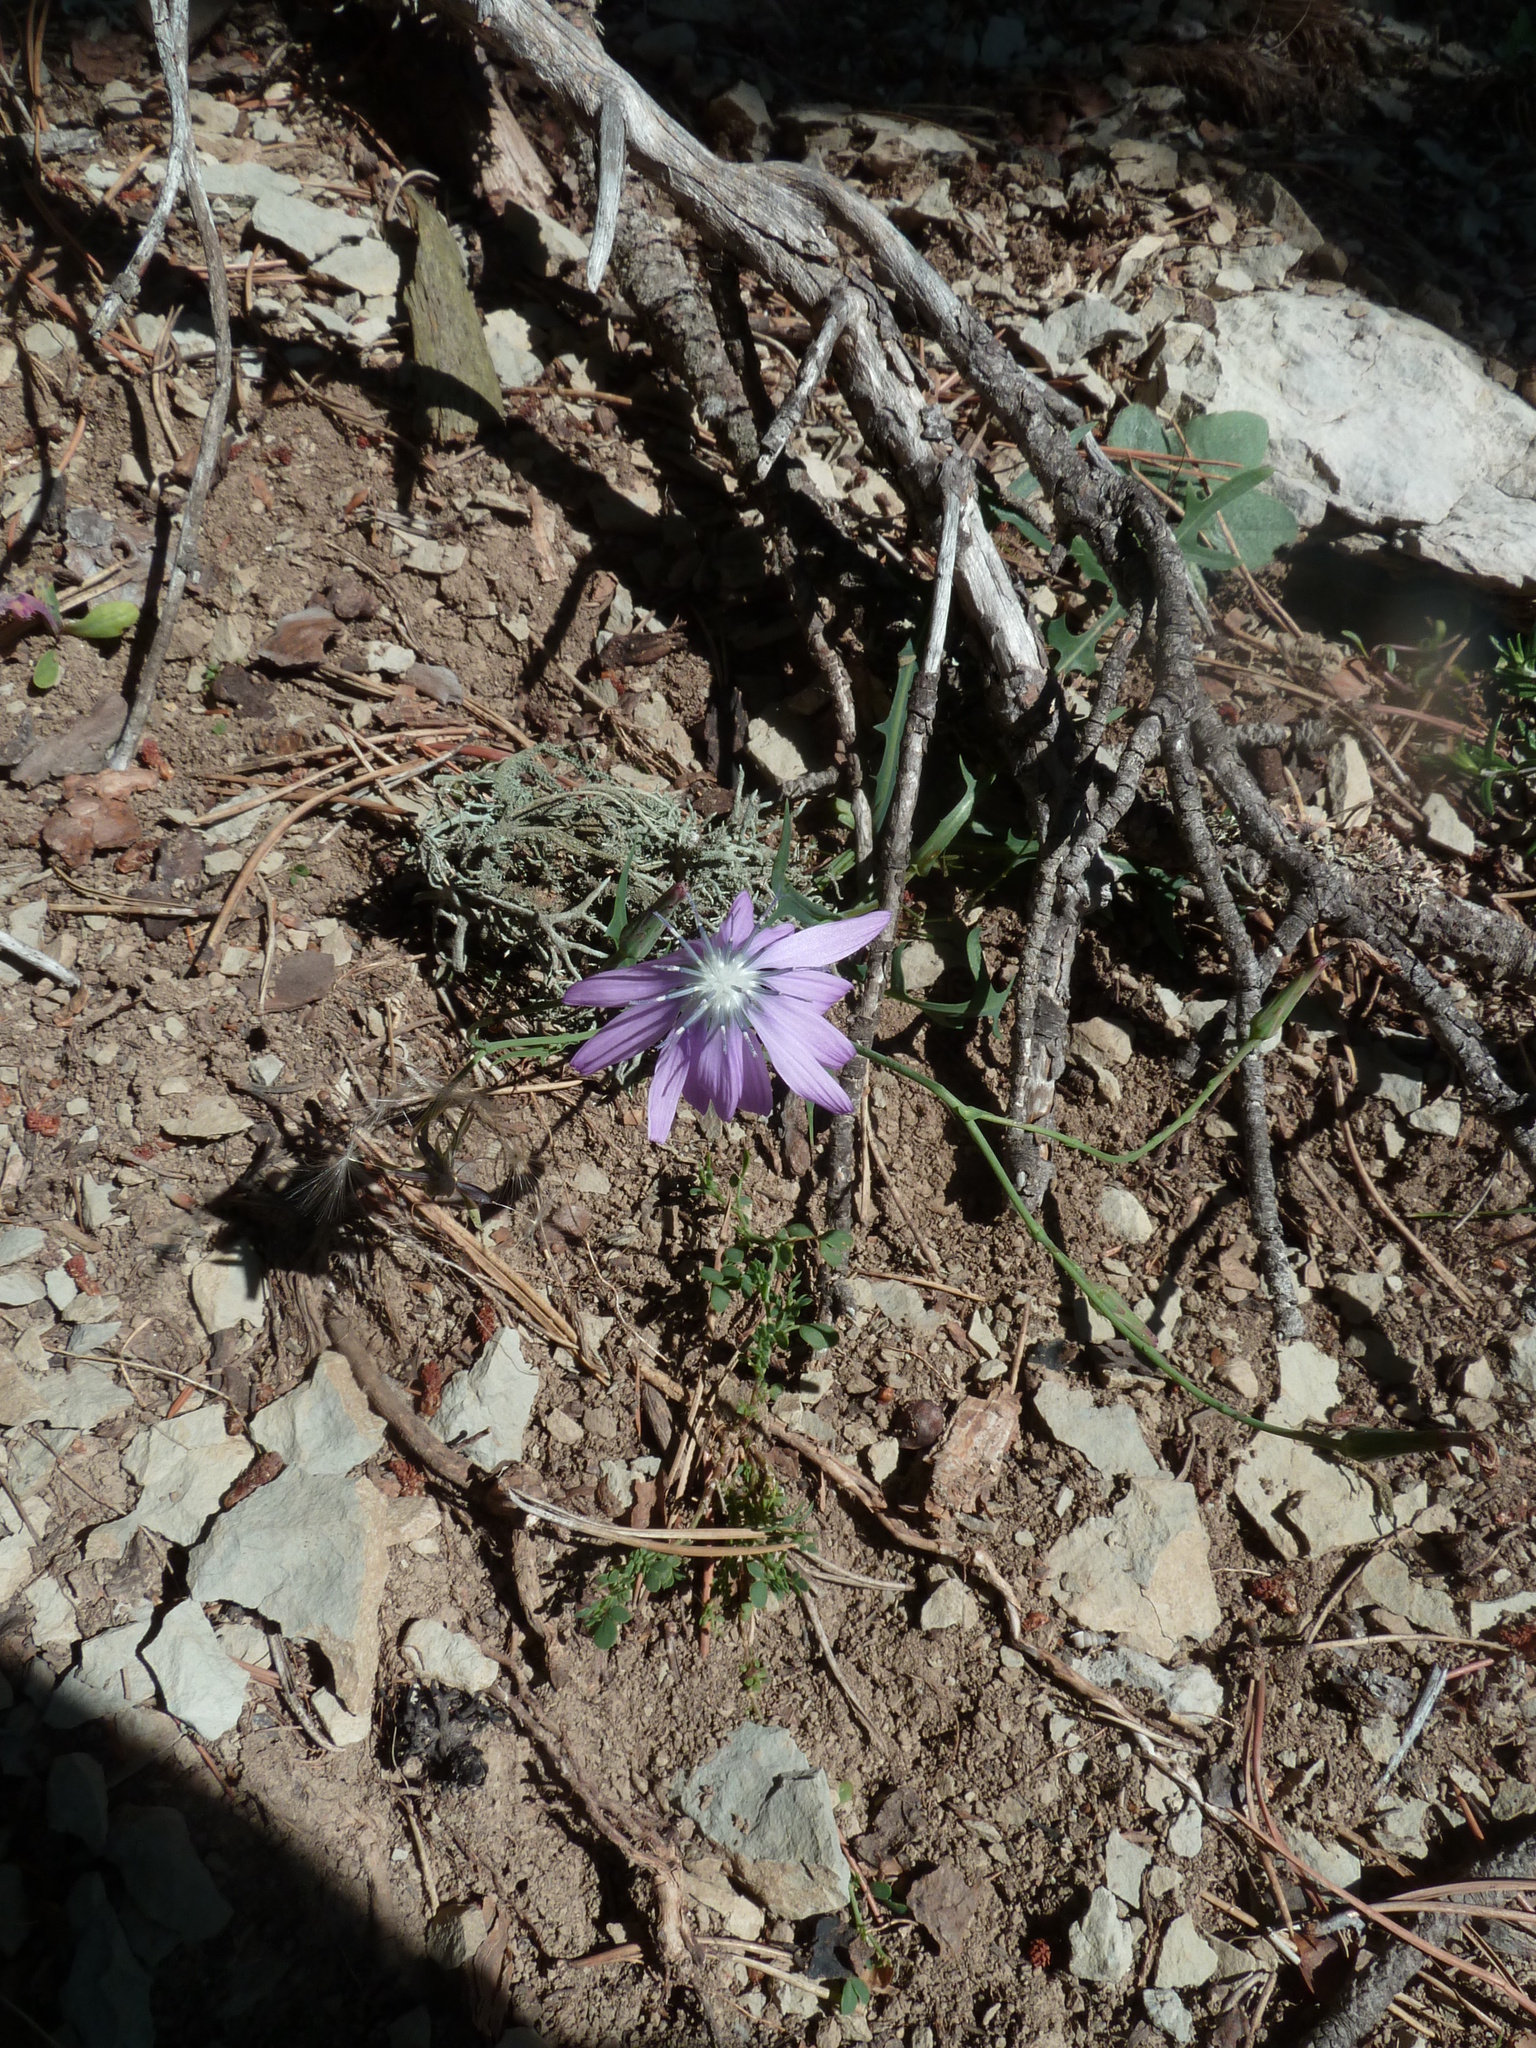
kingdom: Plantae
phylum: Tracheophyta
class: Magnoliopsida
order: Asterales
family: Asteraceae
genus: Lactuca
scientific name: Lactuca perennis
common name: Mountain lettuce
